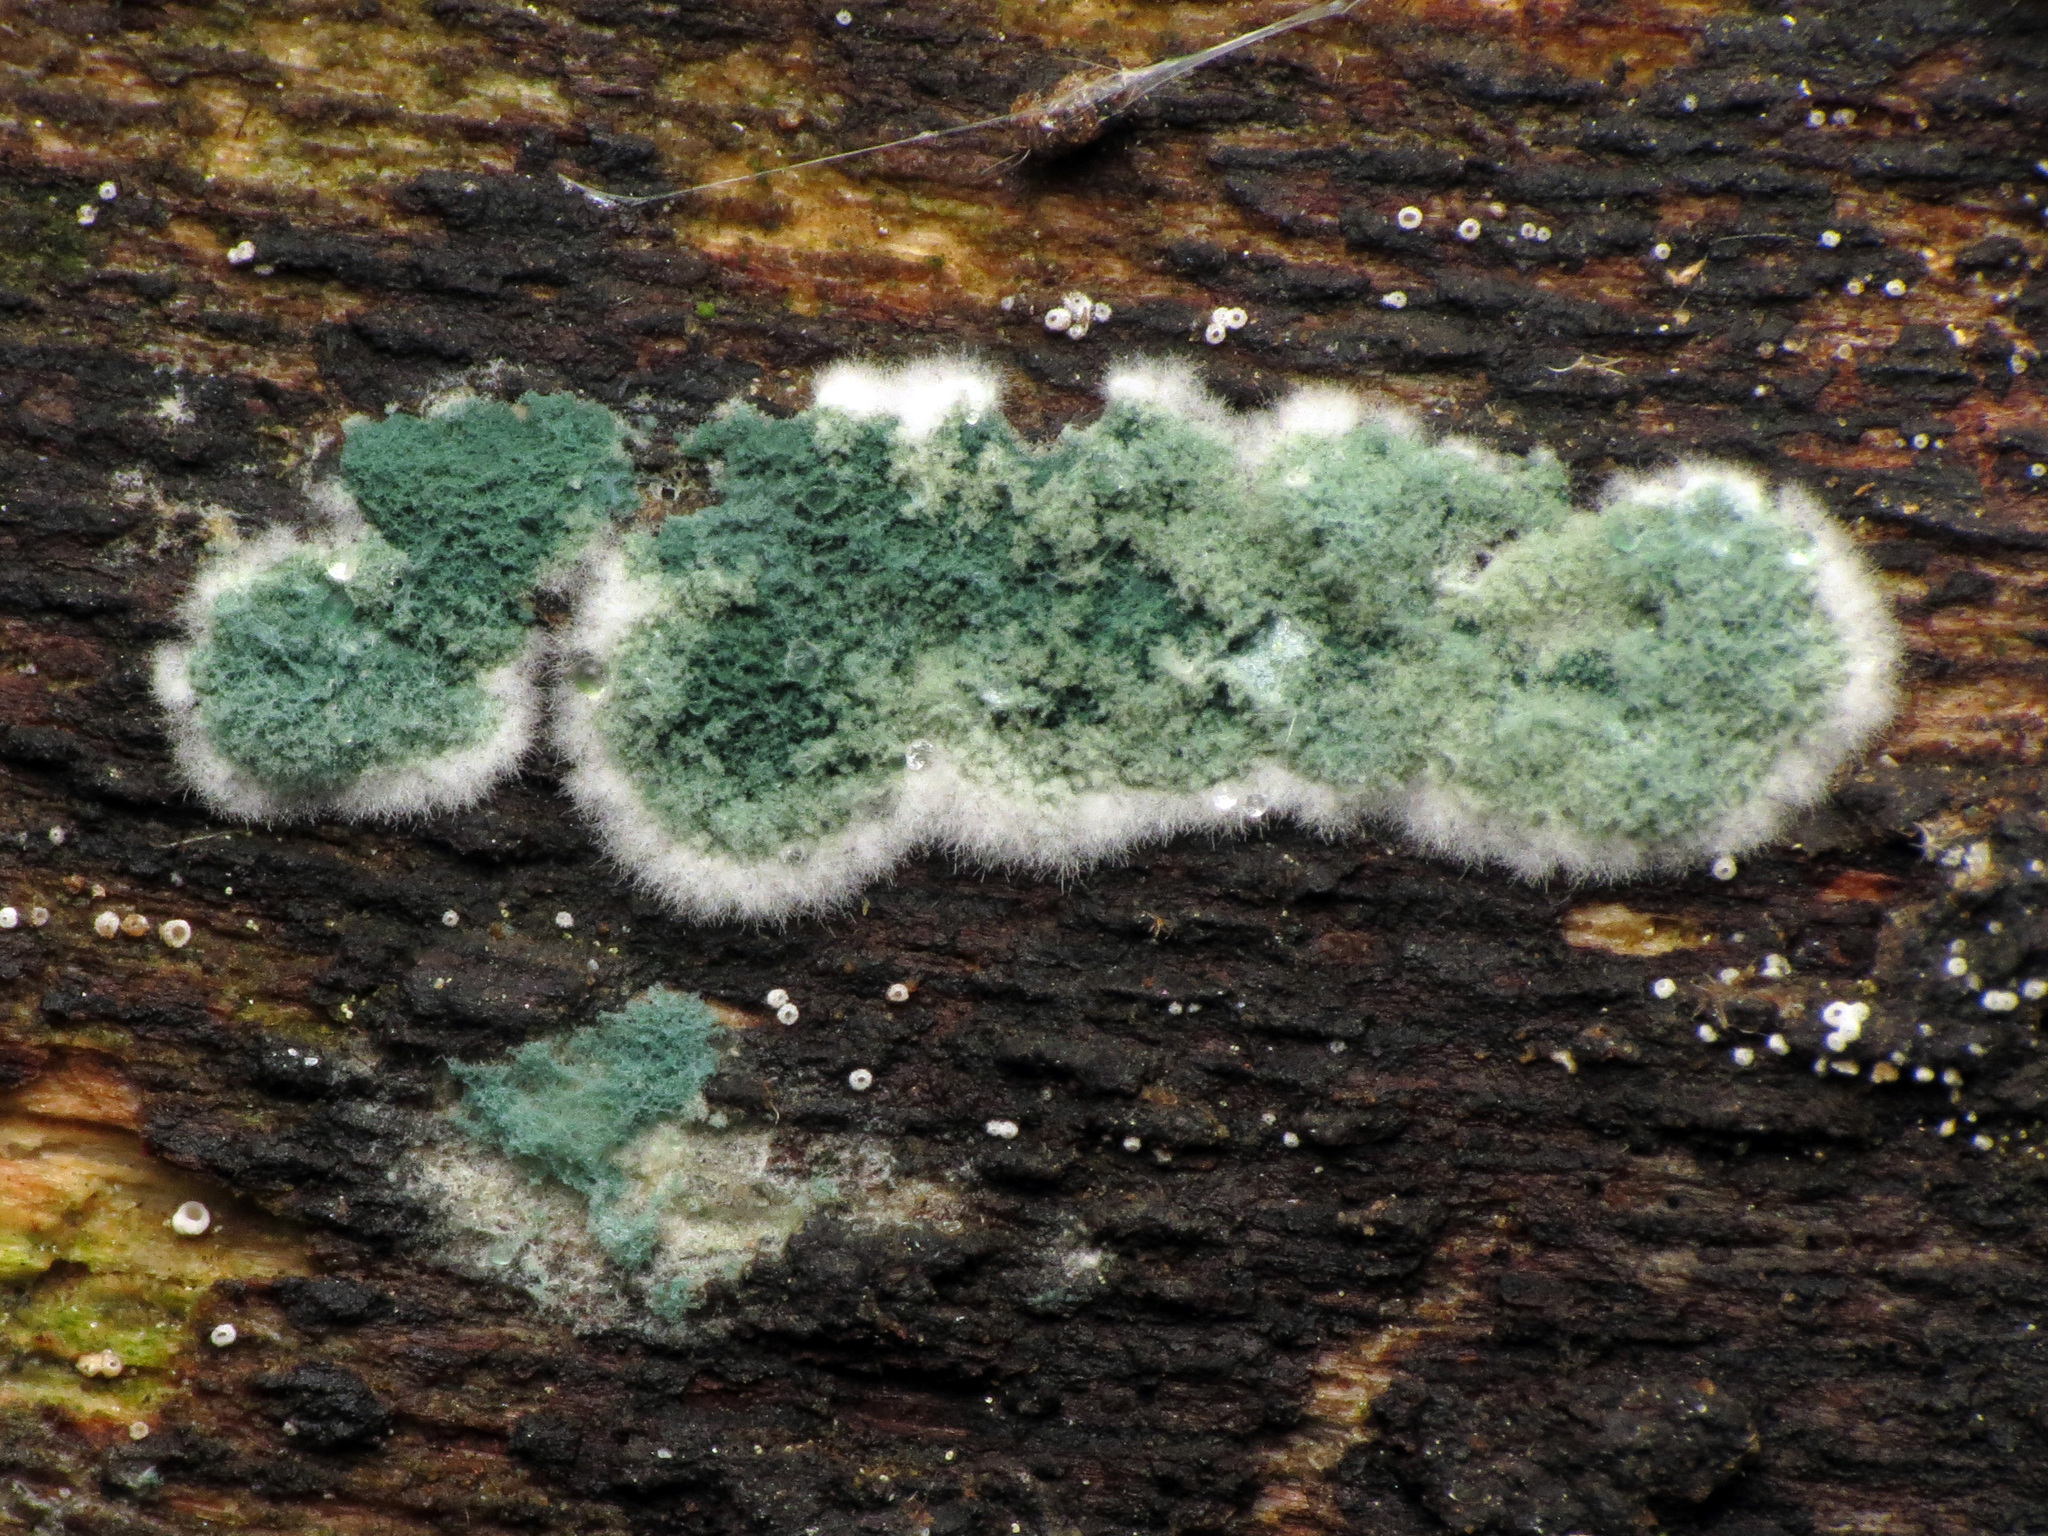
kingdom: Fungi
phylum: Ascomycota
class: Sordariomycetes
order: Hypocreales
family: Hypocreaceae
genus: Trichoderma
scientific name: Trichoderma viride
